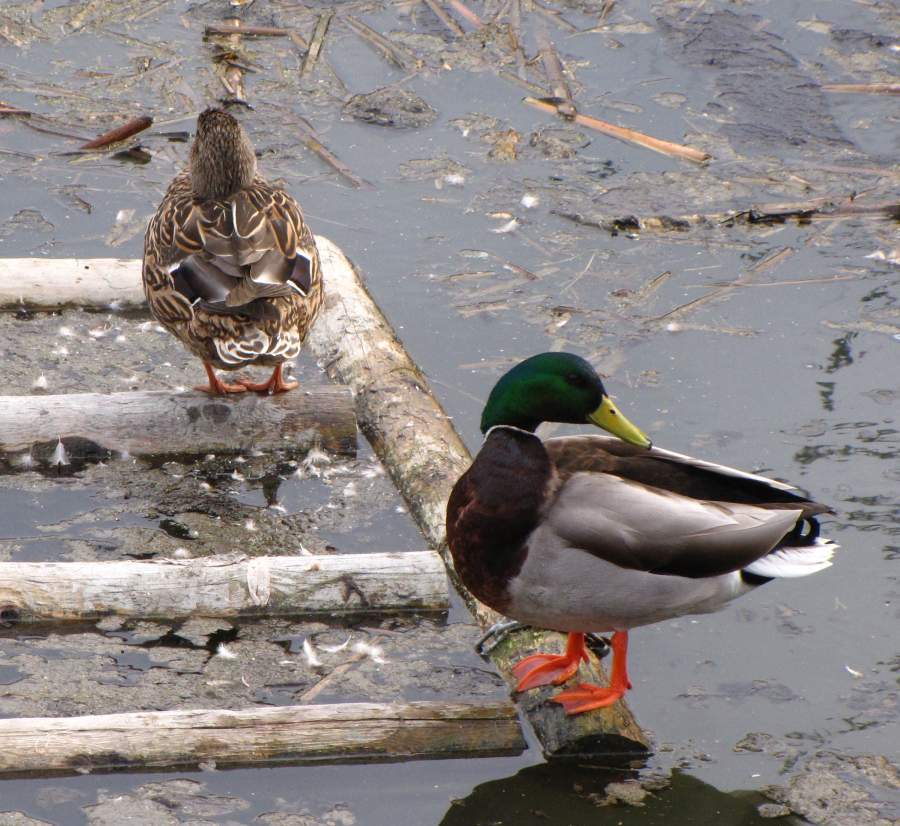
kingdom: Animalia
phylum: Chordata
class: Aves
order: Anseriformes
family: Anatidae
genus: Anas
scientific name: Anas platyrhynchos
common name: Mallard
